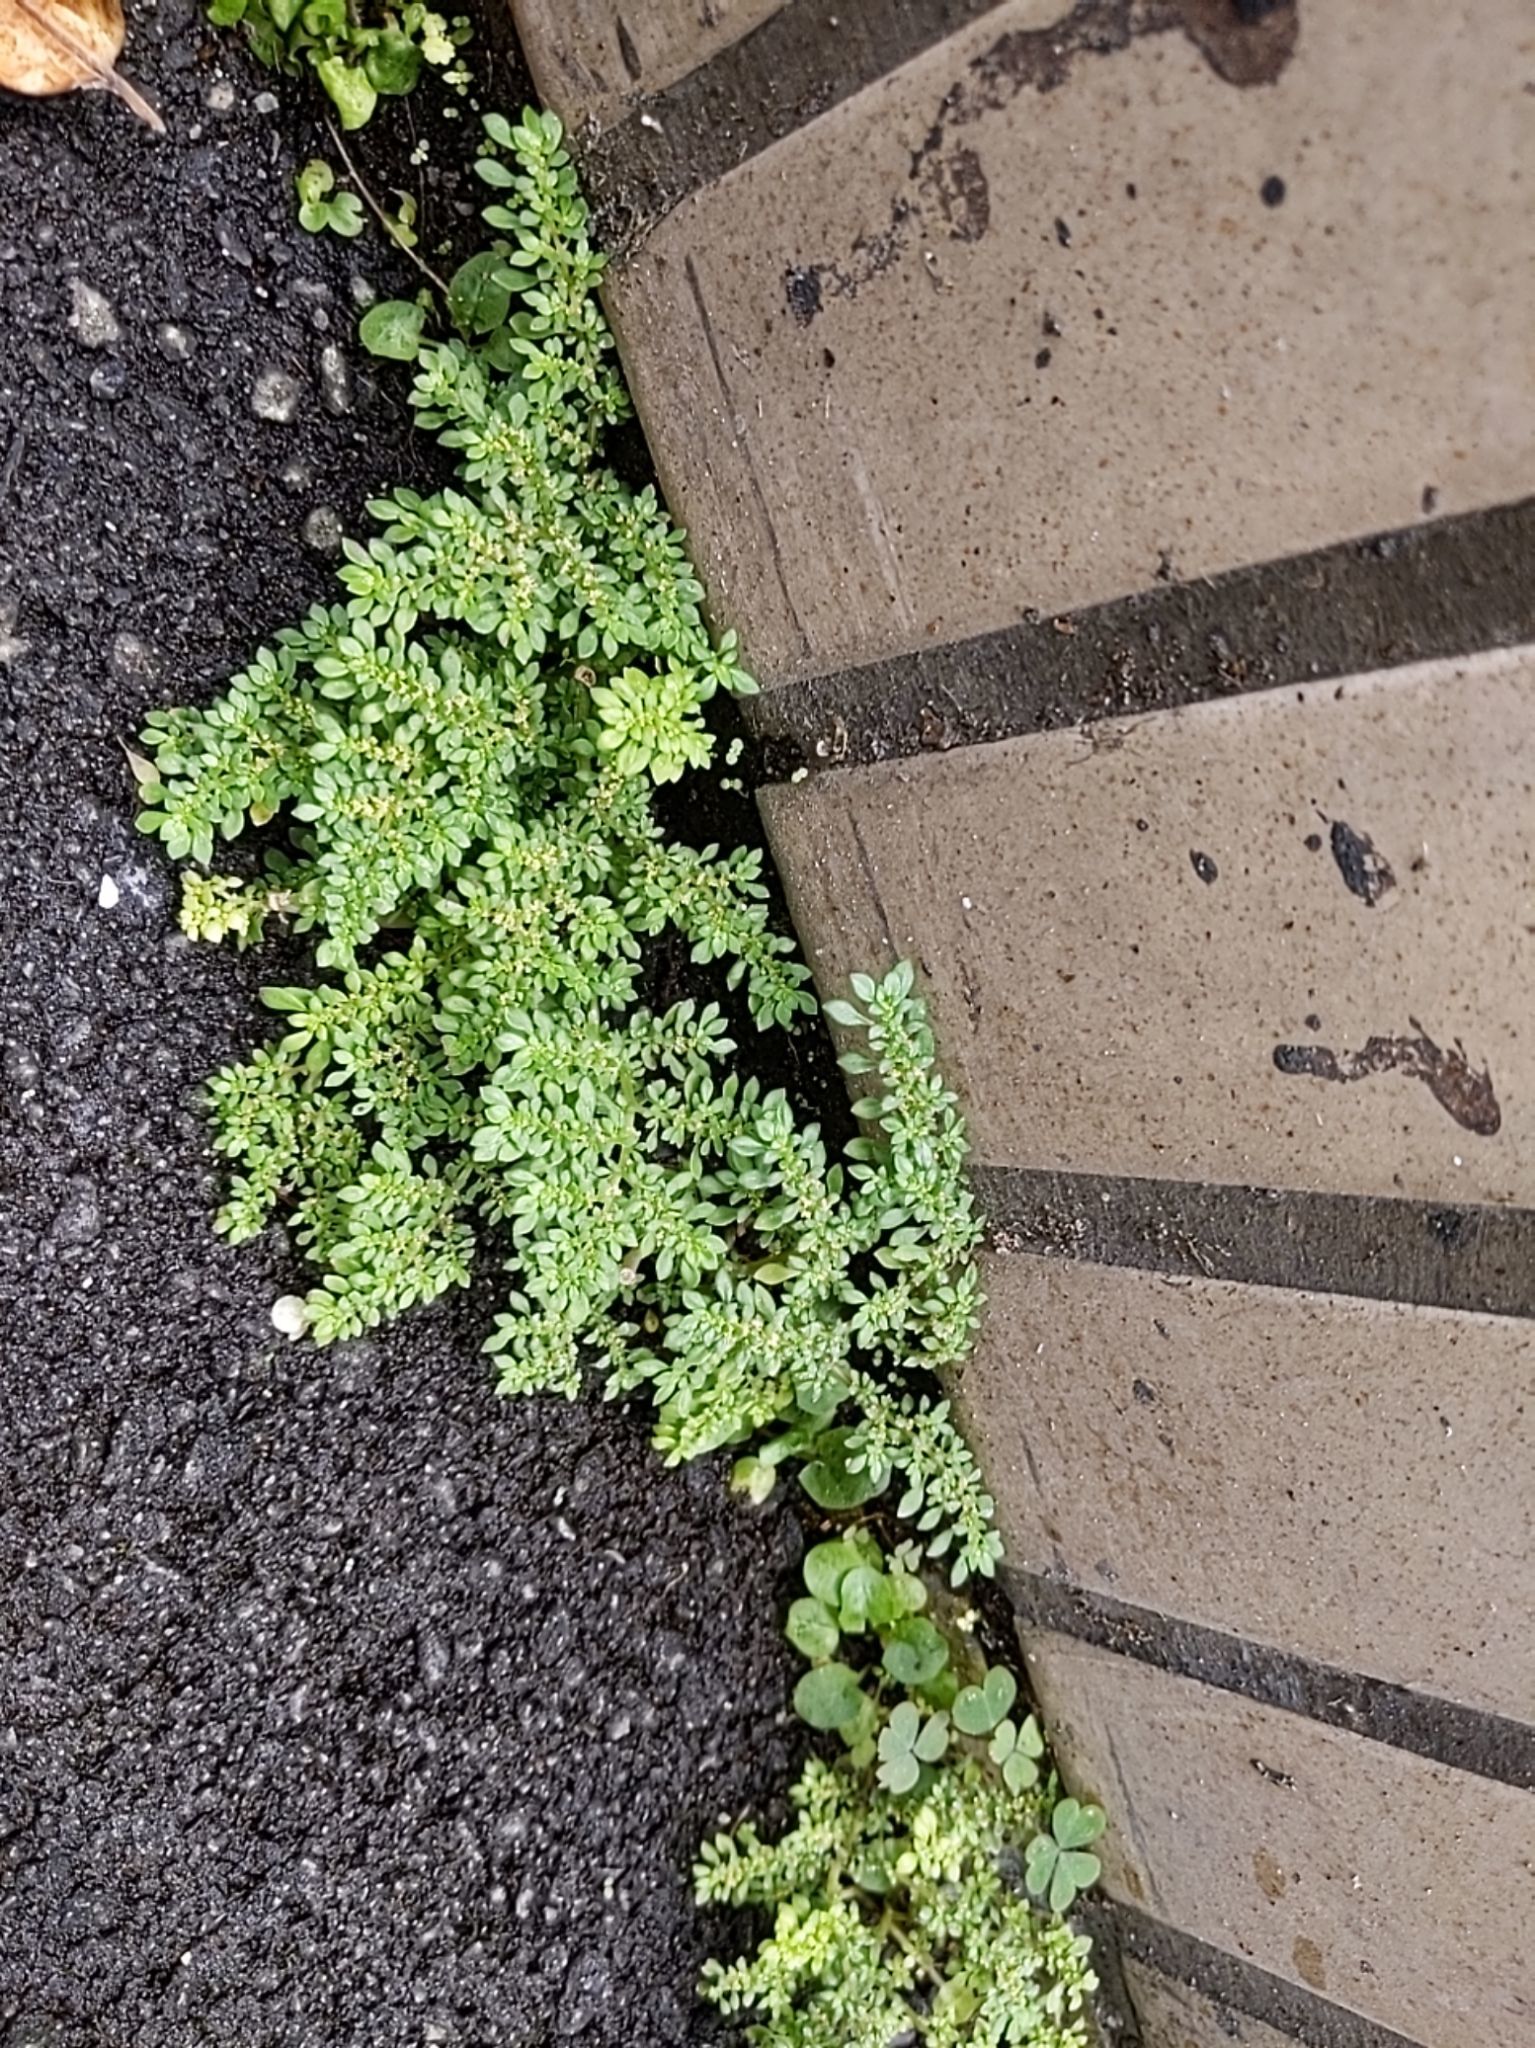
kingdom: Plantae
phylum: Tracheophyta
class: Magnoliopsida
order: Rosales
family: Urticaceae
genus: Pilea
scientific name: Pilea microphylla
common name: Artillery-plant
